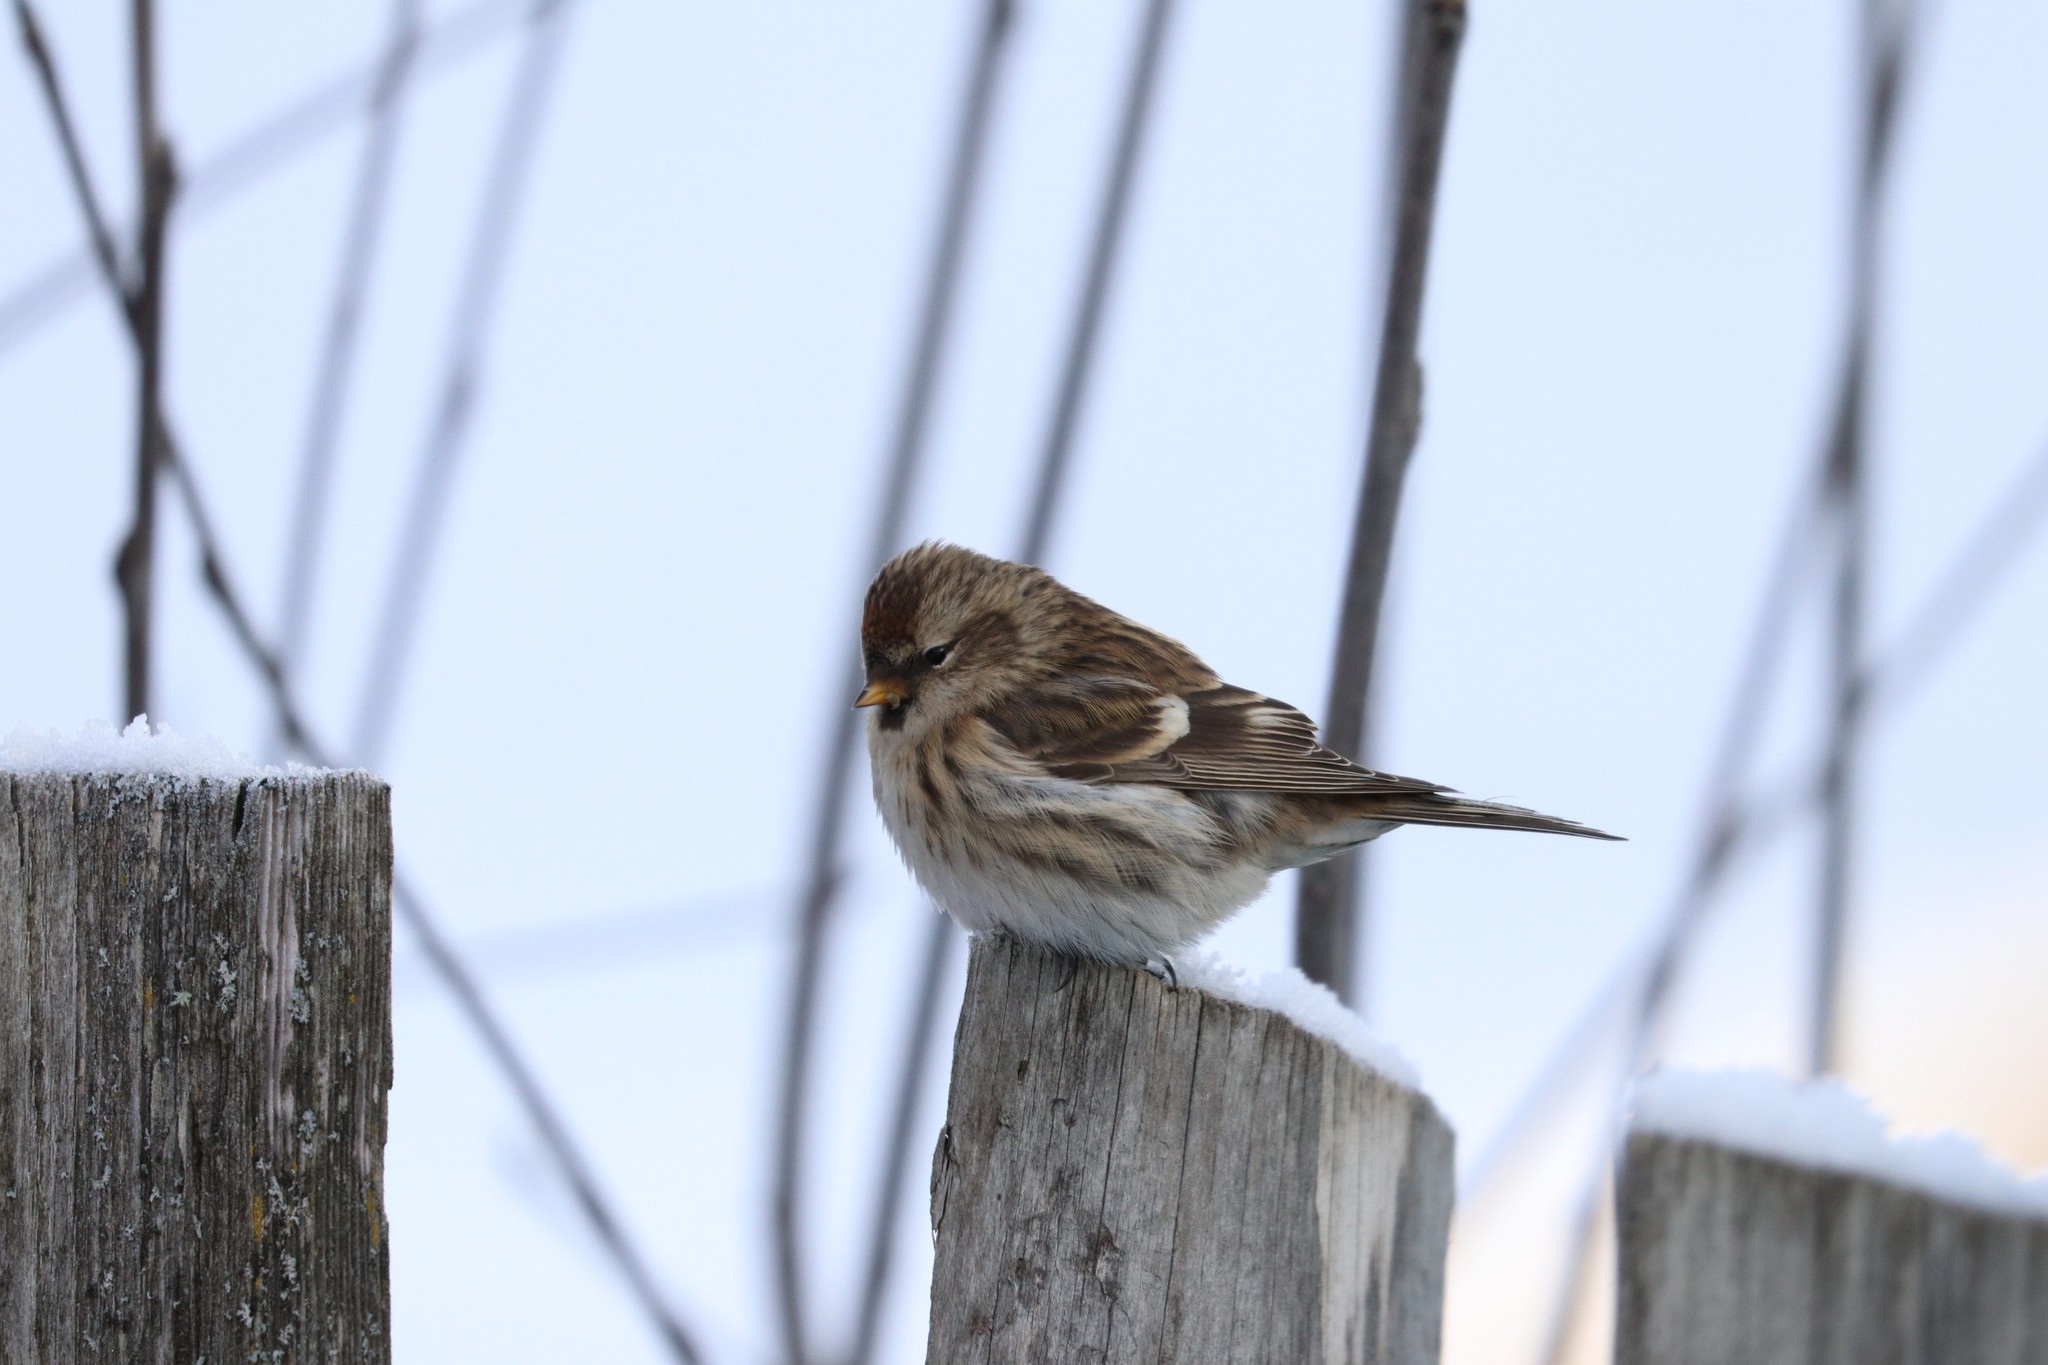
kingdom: Animalia
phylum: Chordata
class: Aves
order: Passeriformes
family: Fringillidae
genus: Acanthis
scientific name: Acanthis flammea
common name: Common redpoll
